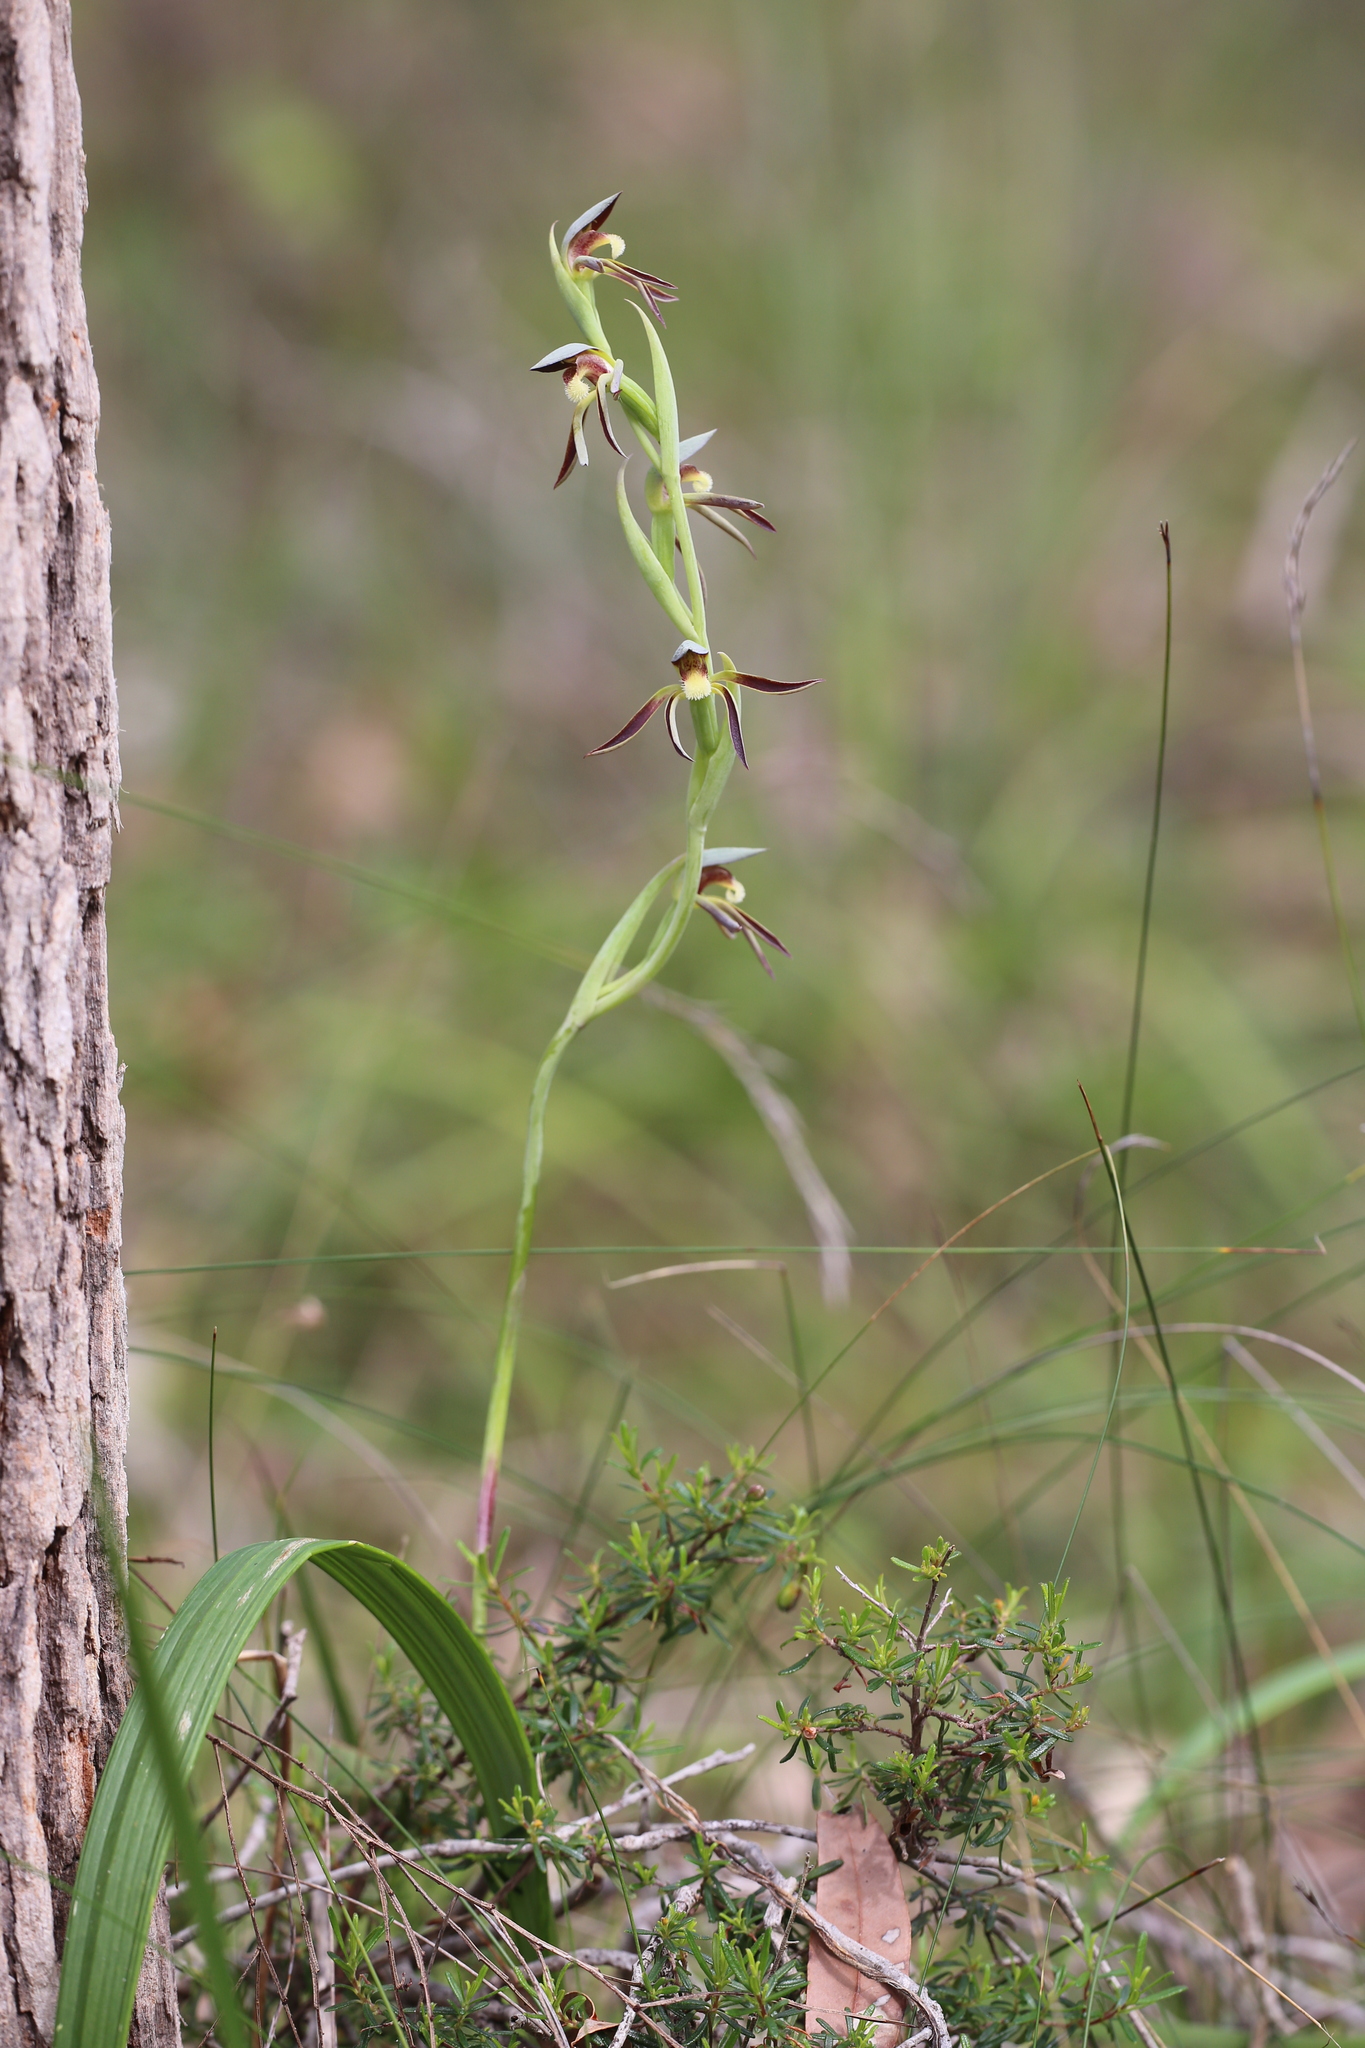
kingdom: Plantae
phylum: Tracheophyta
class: Liliopsida
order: Asparagales
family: Orchidaceae
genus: Lyperanthus
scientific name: Lyperanthus serratus
